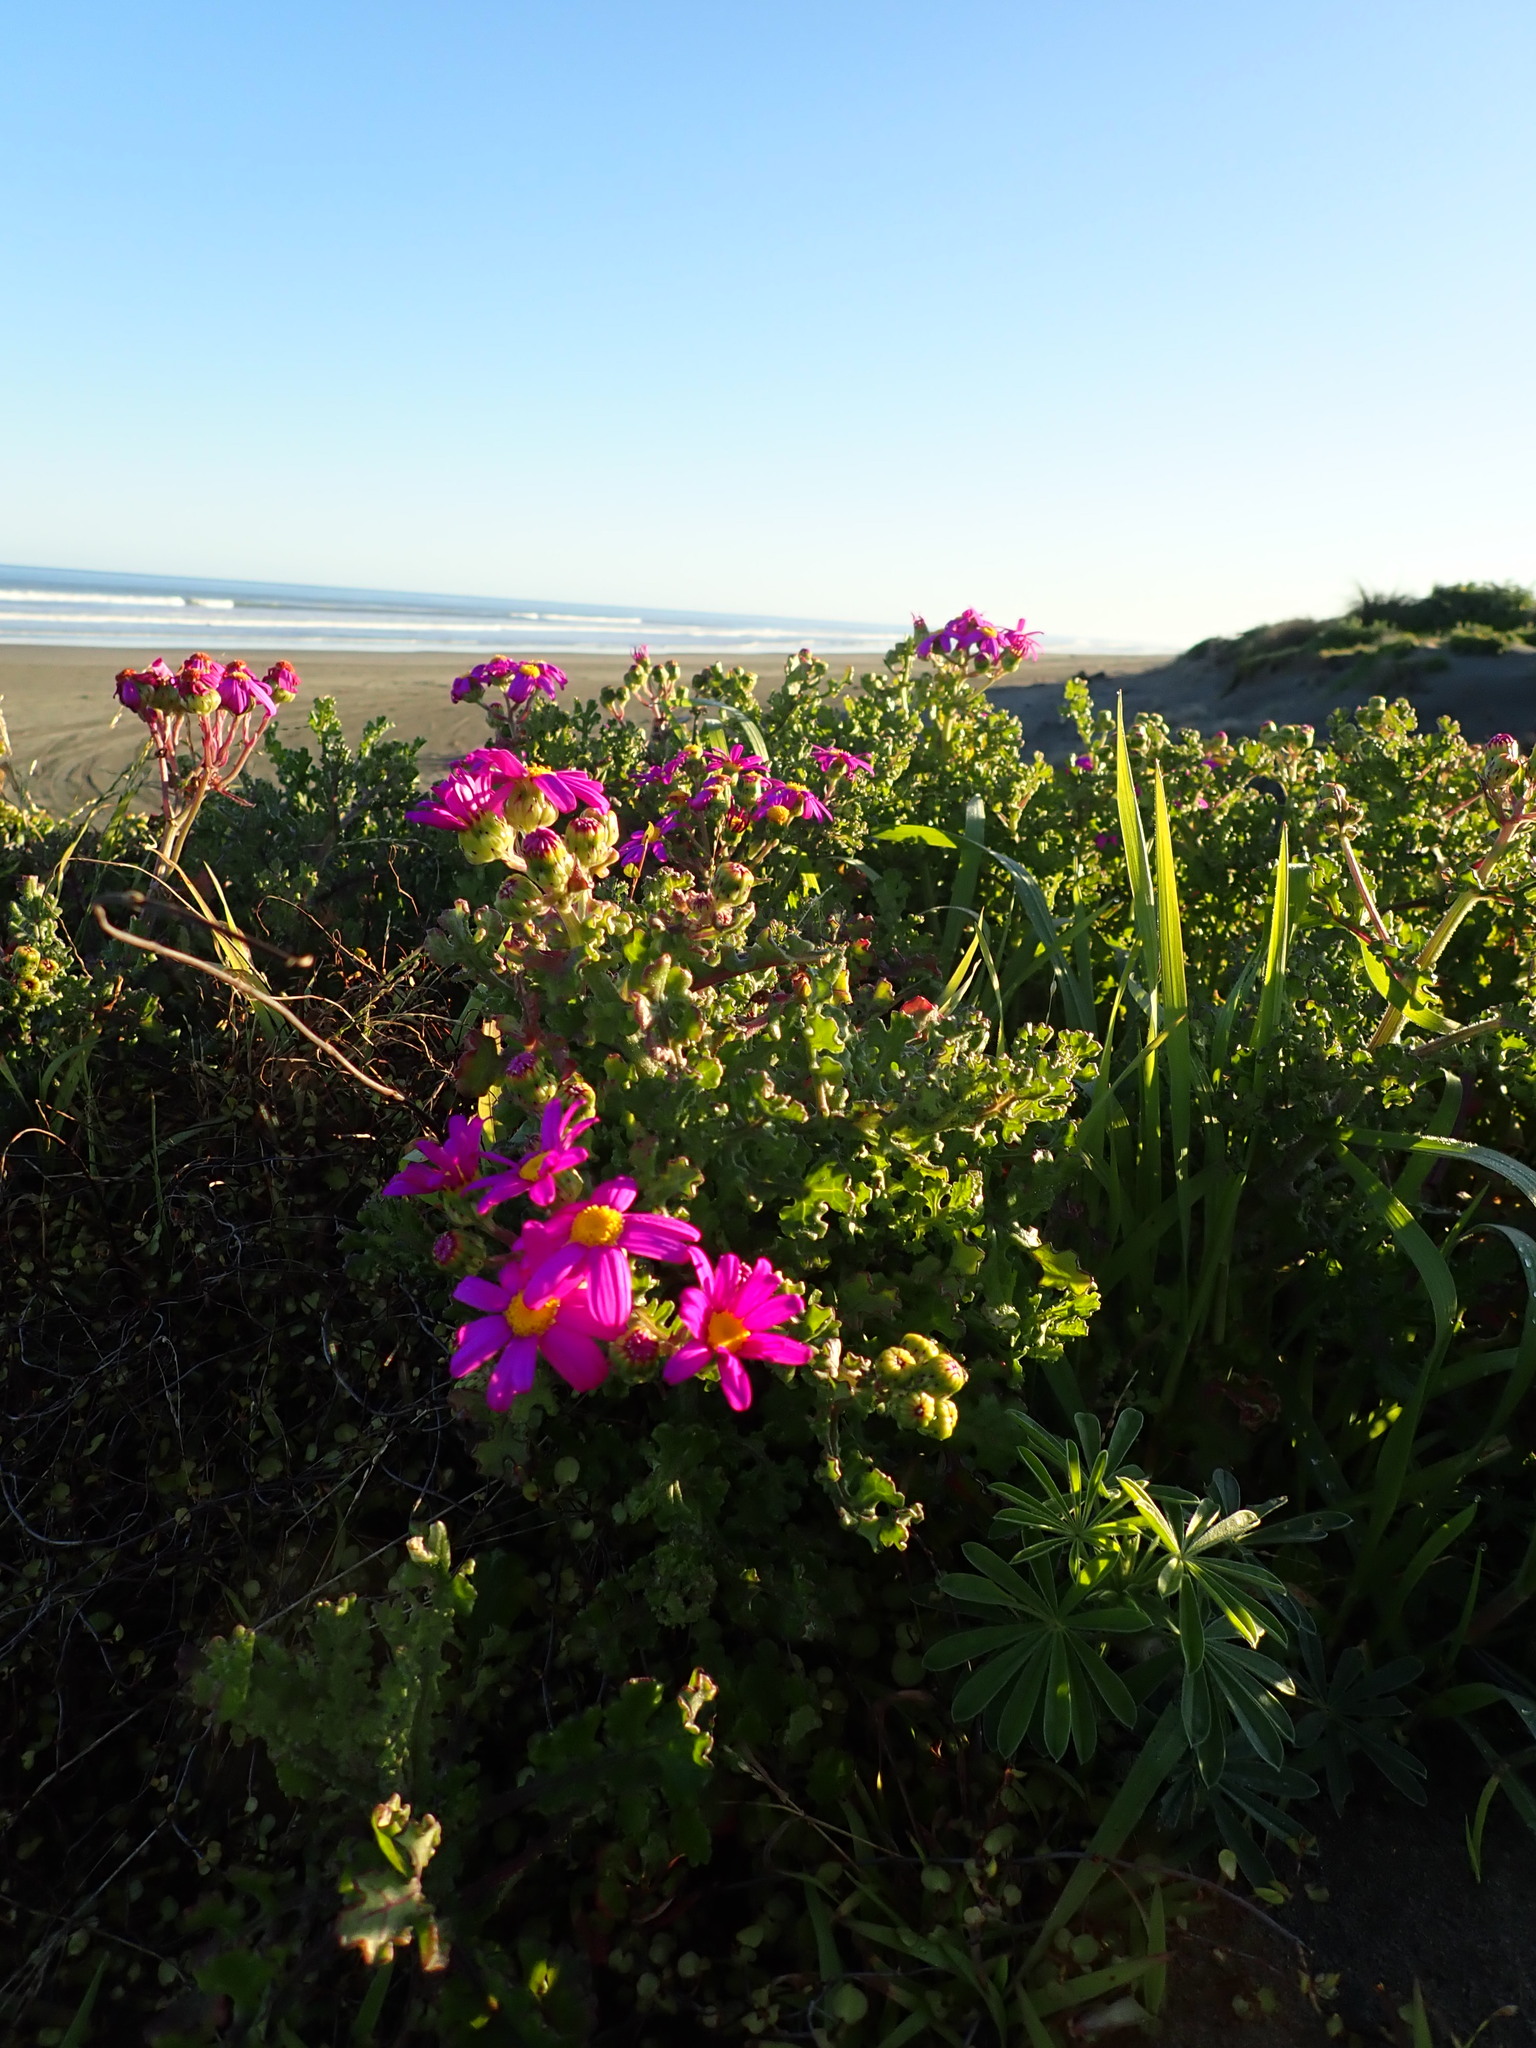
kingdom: Plantae
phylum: Tracheophyta
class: Magnoliopsida
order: Asterales
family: Asteraceae
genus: Senecio
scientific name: Senecio elegans
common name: Purple groundsel
